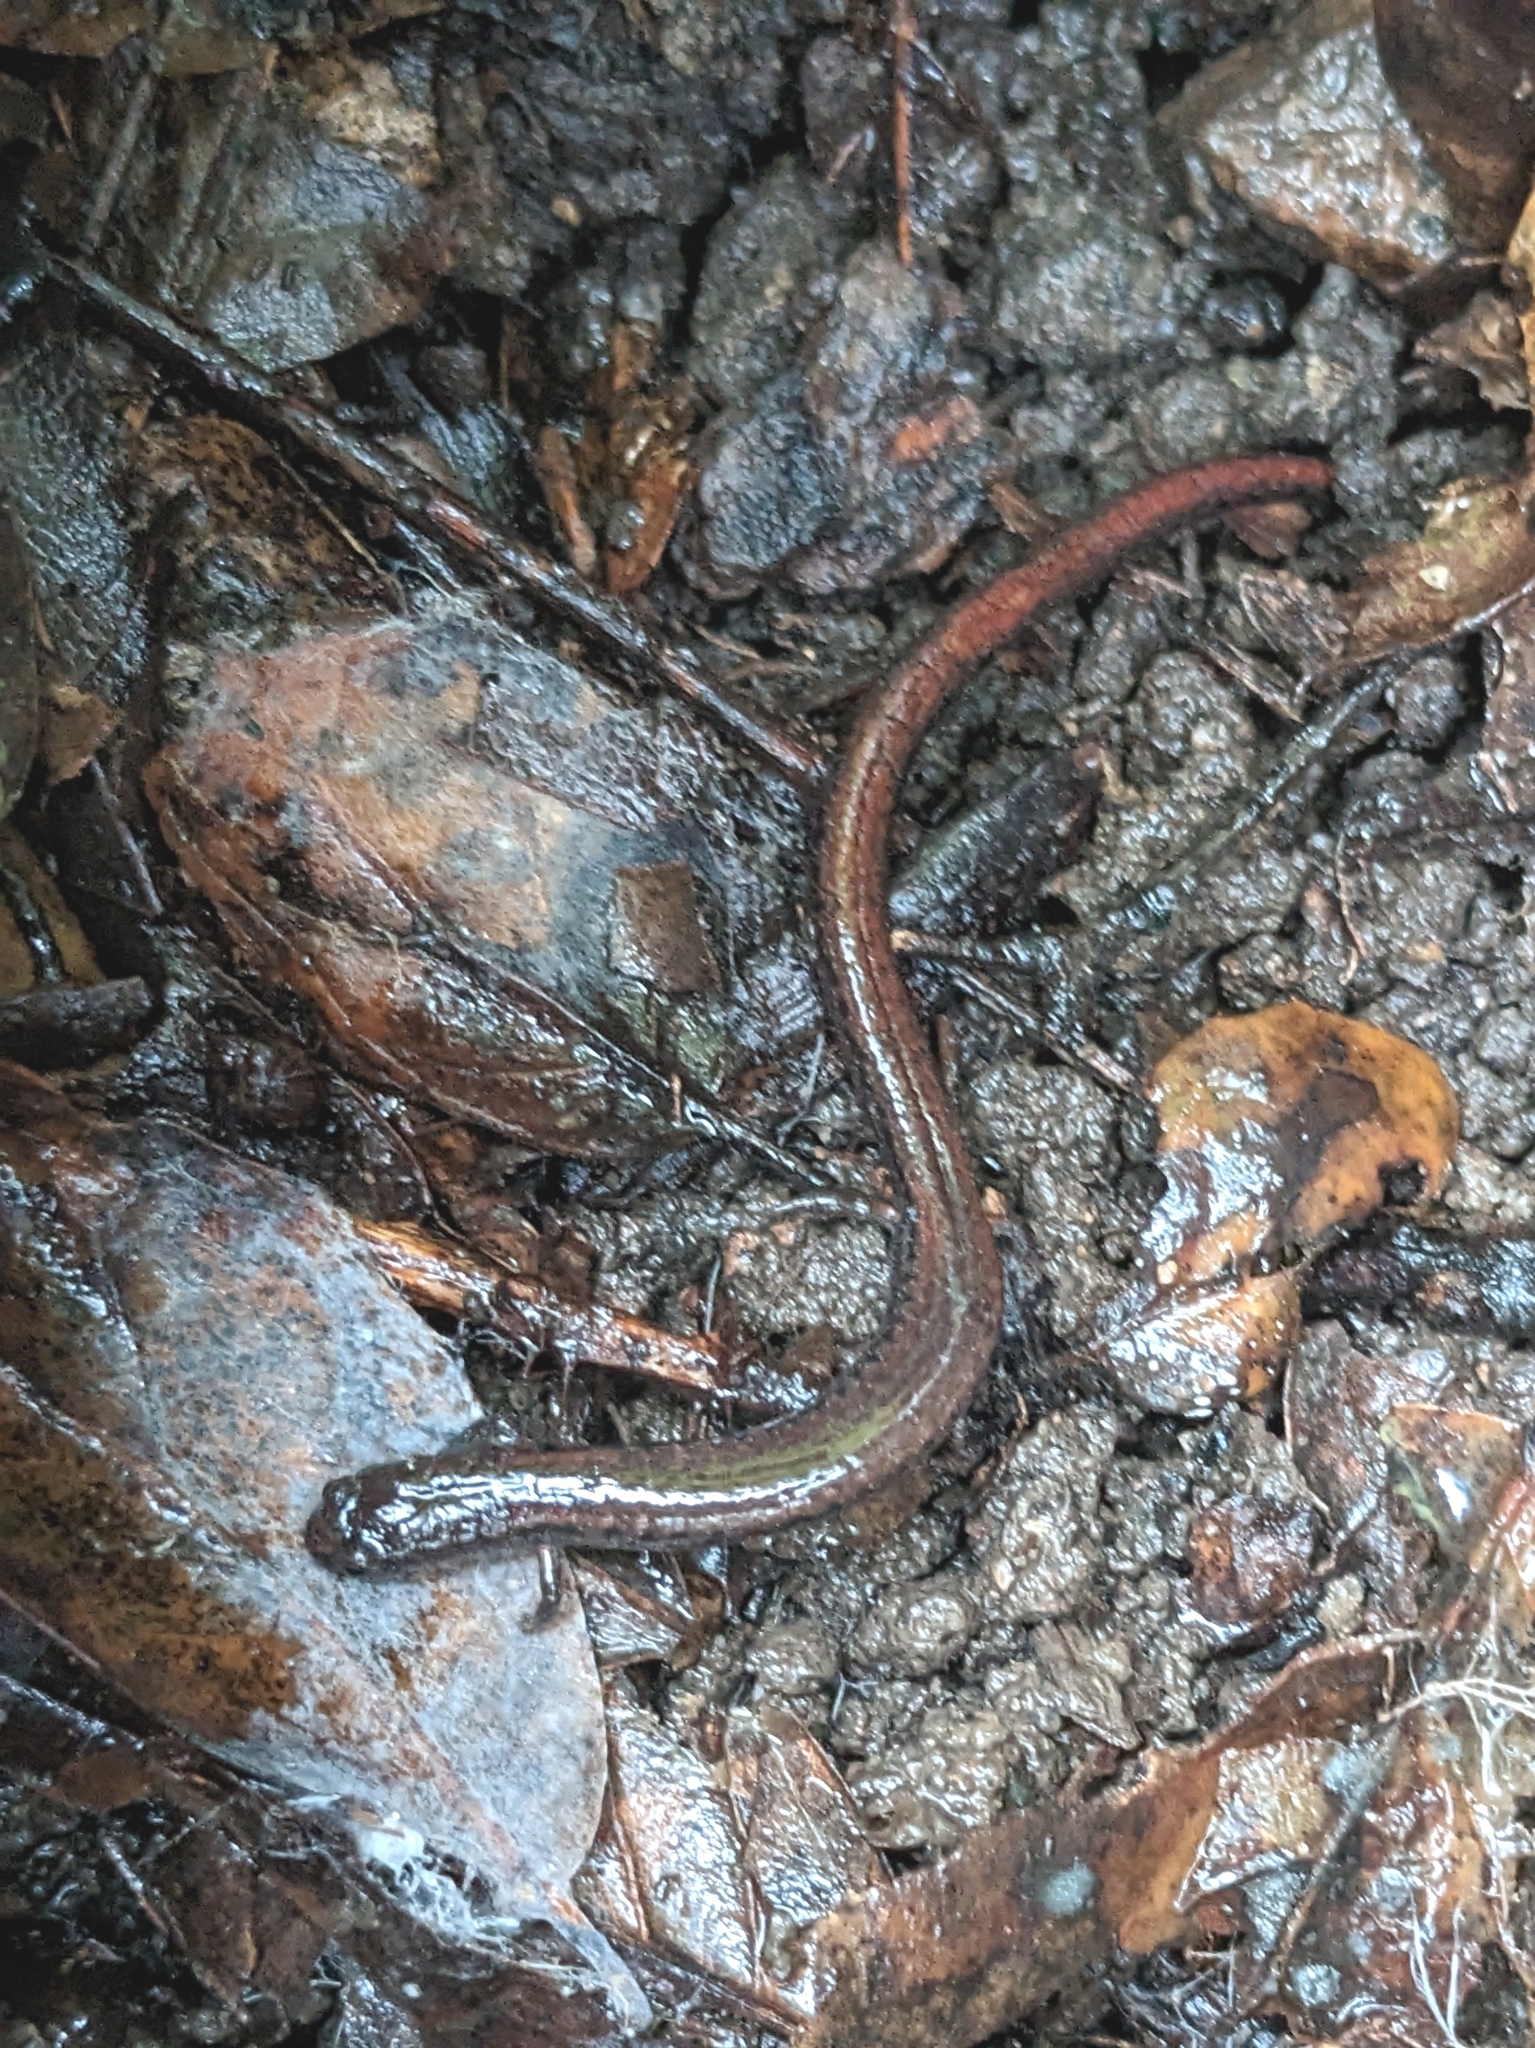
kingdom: Animalia
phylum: Chordata
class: Amphibia
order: Caudata
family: Plethodontidae
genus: Batrachoseps
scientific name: Batrachoseps attenuatus
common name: California slender salamander
